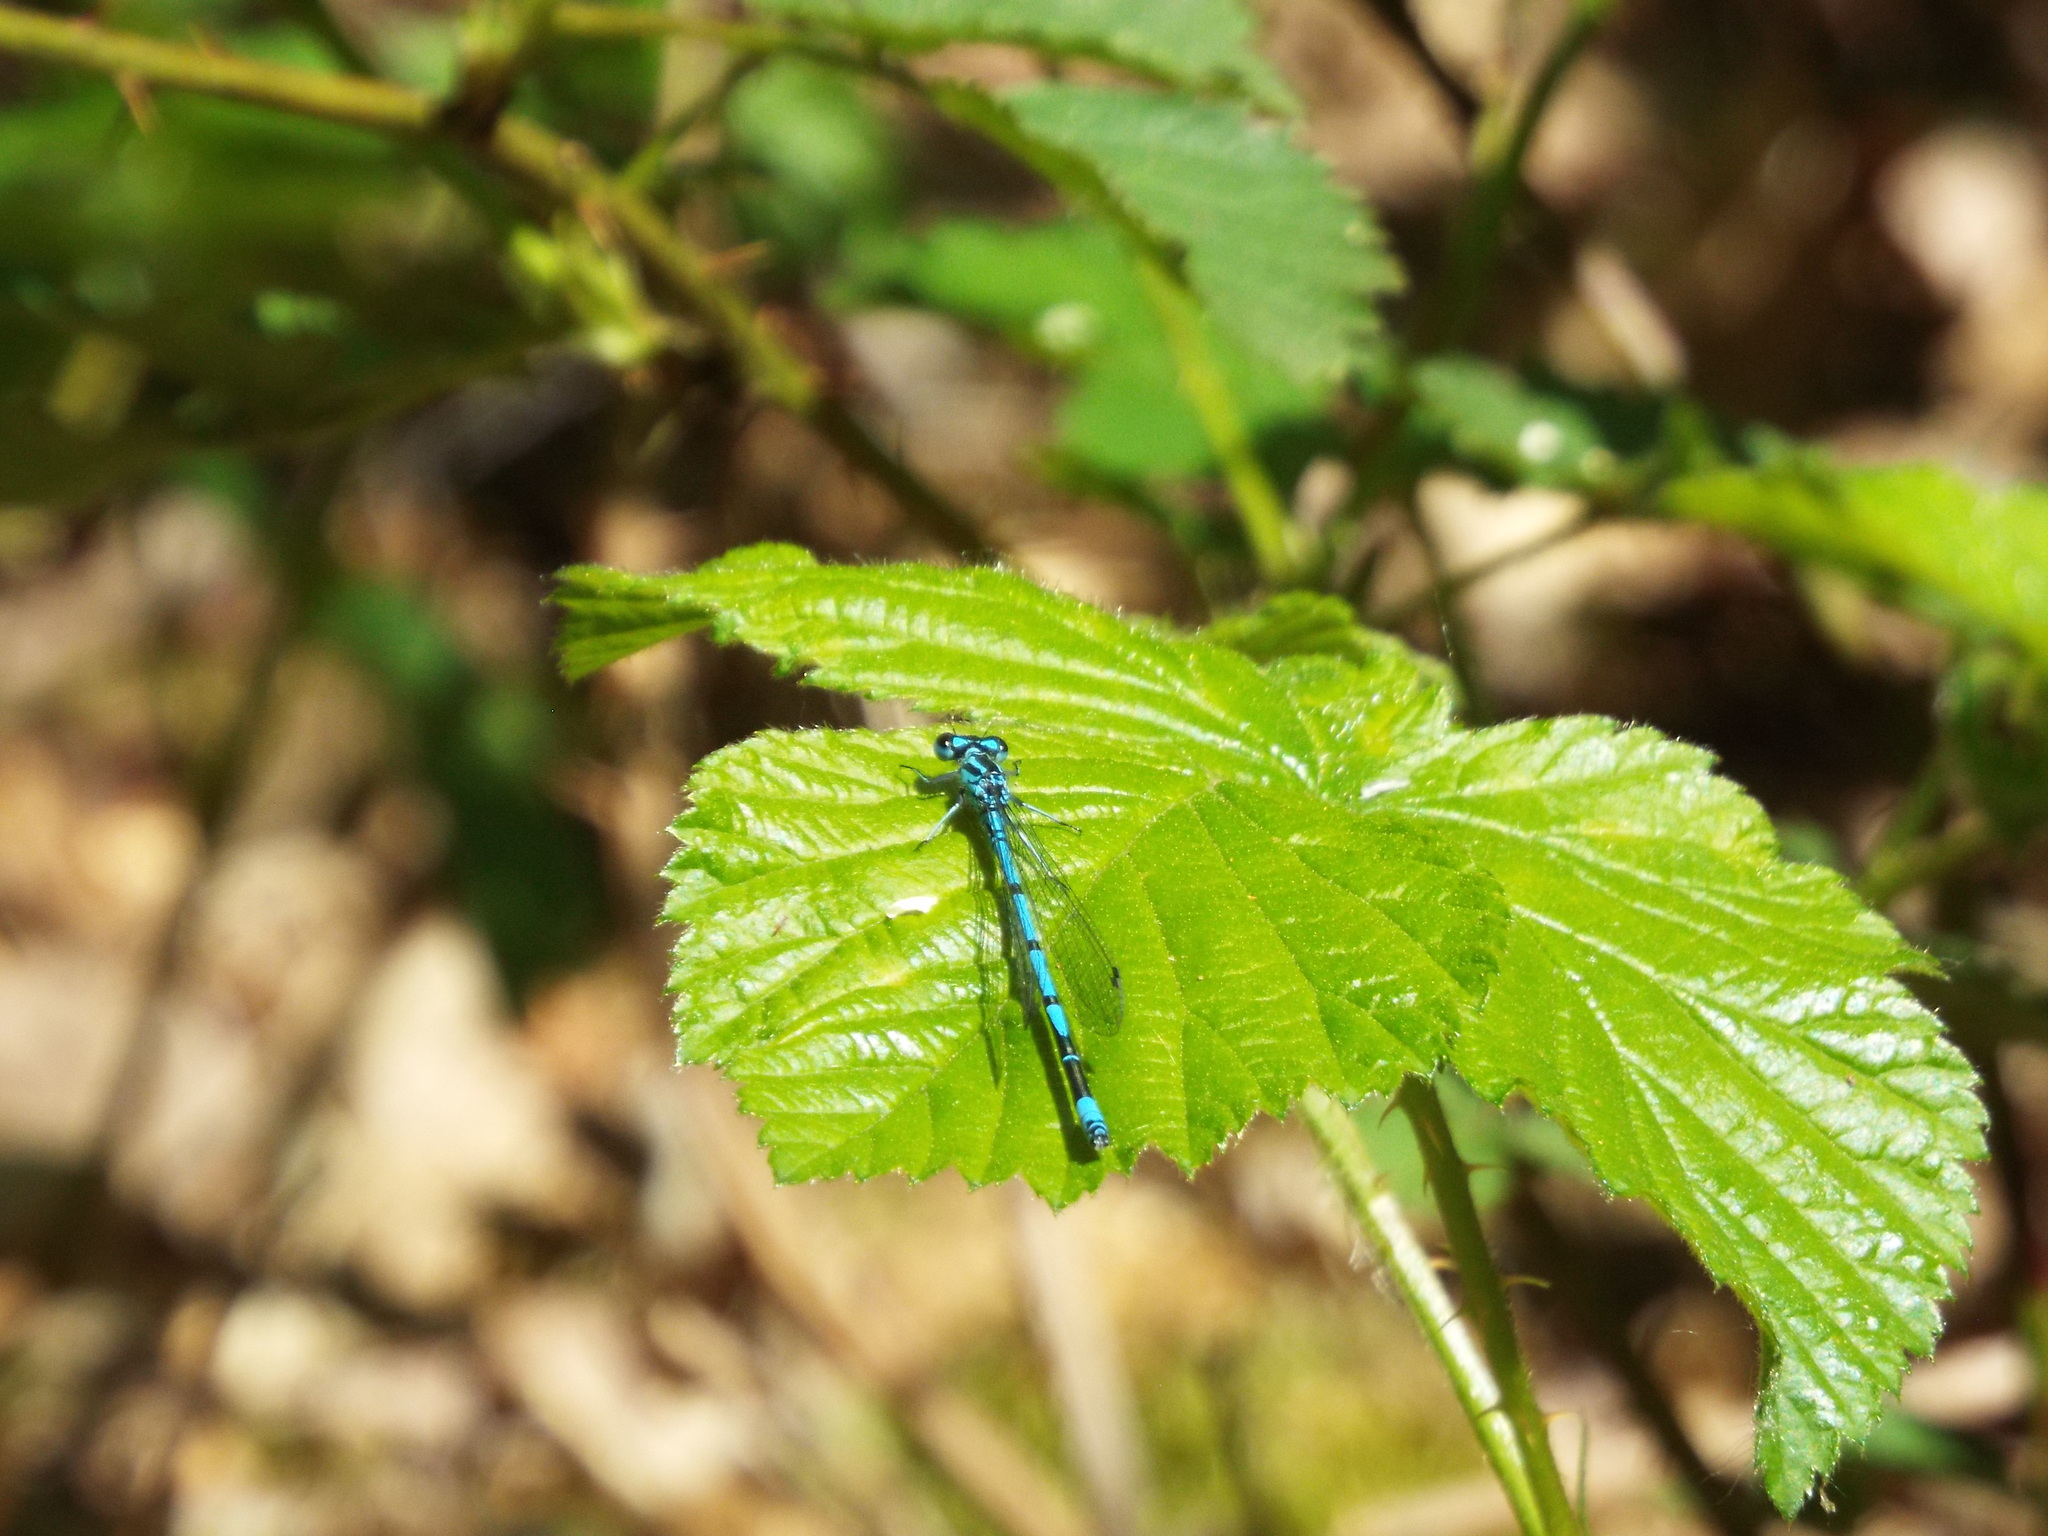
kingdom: Animalia
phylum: Arthropoda
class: Insecta
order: Odonata
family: Coenagrionidae
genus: Coenagrion
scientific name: Coenagrion puella
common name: Azure damselfly
